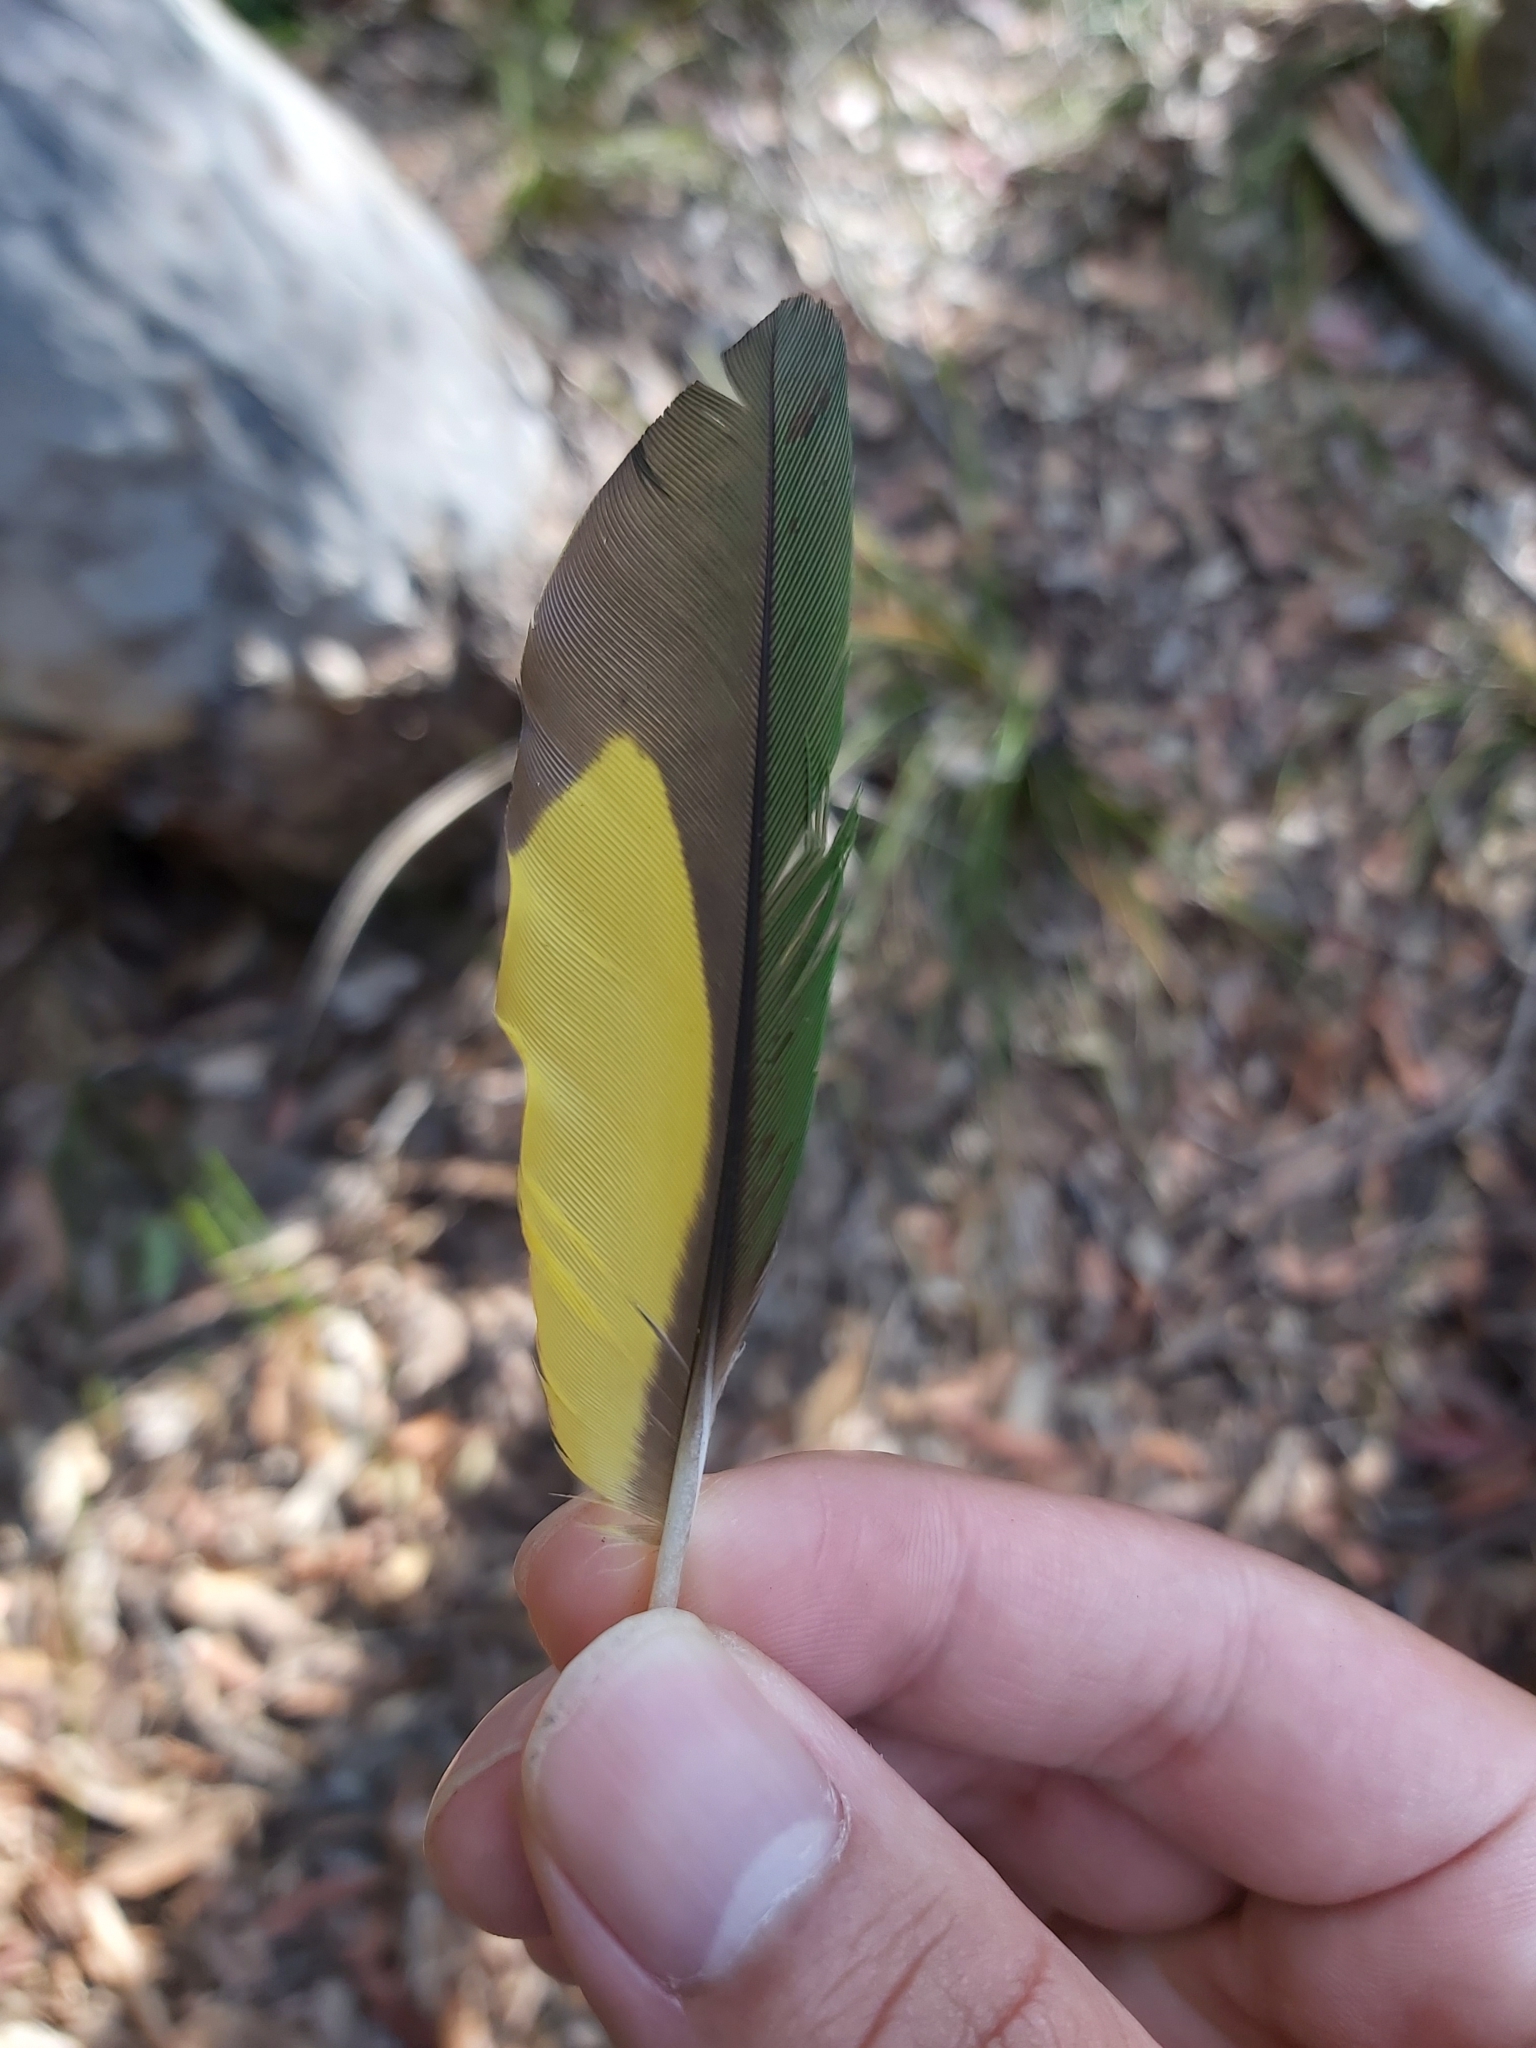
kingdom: Animalia
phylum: Chordata
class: Aves
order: Psittaciformes
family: Psittacidae
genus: Trichoglossus
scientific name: Trichoglossus haematodus
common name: Coconut lorikeet
